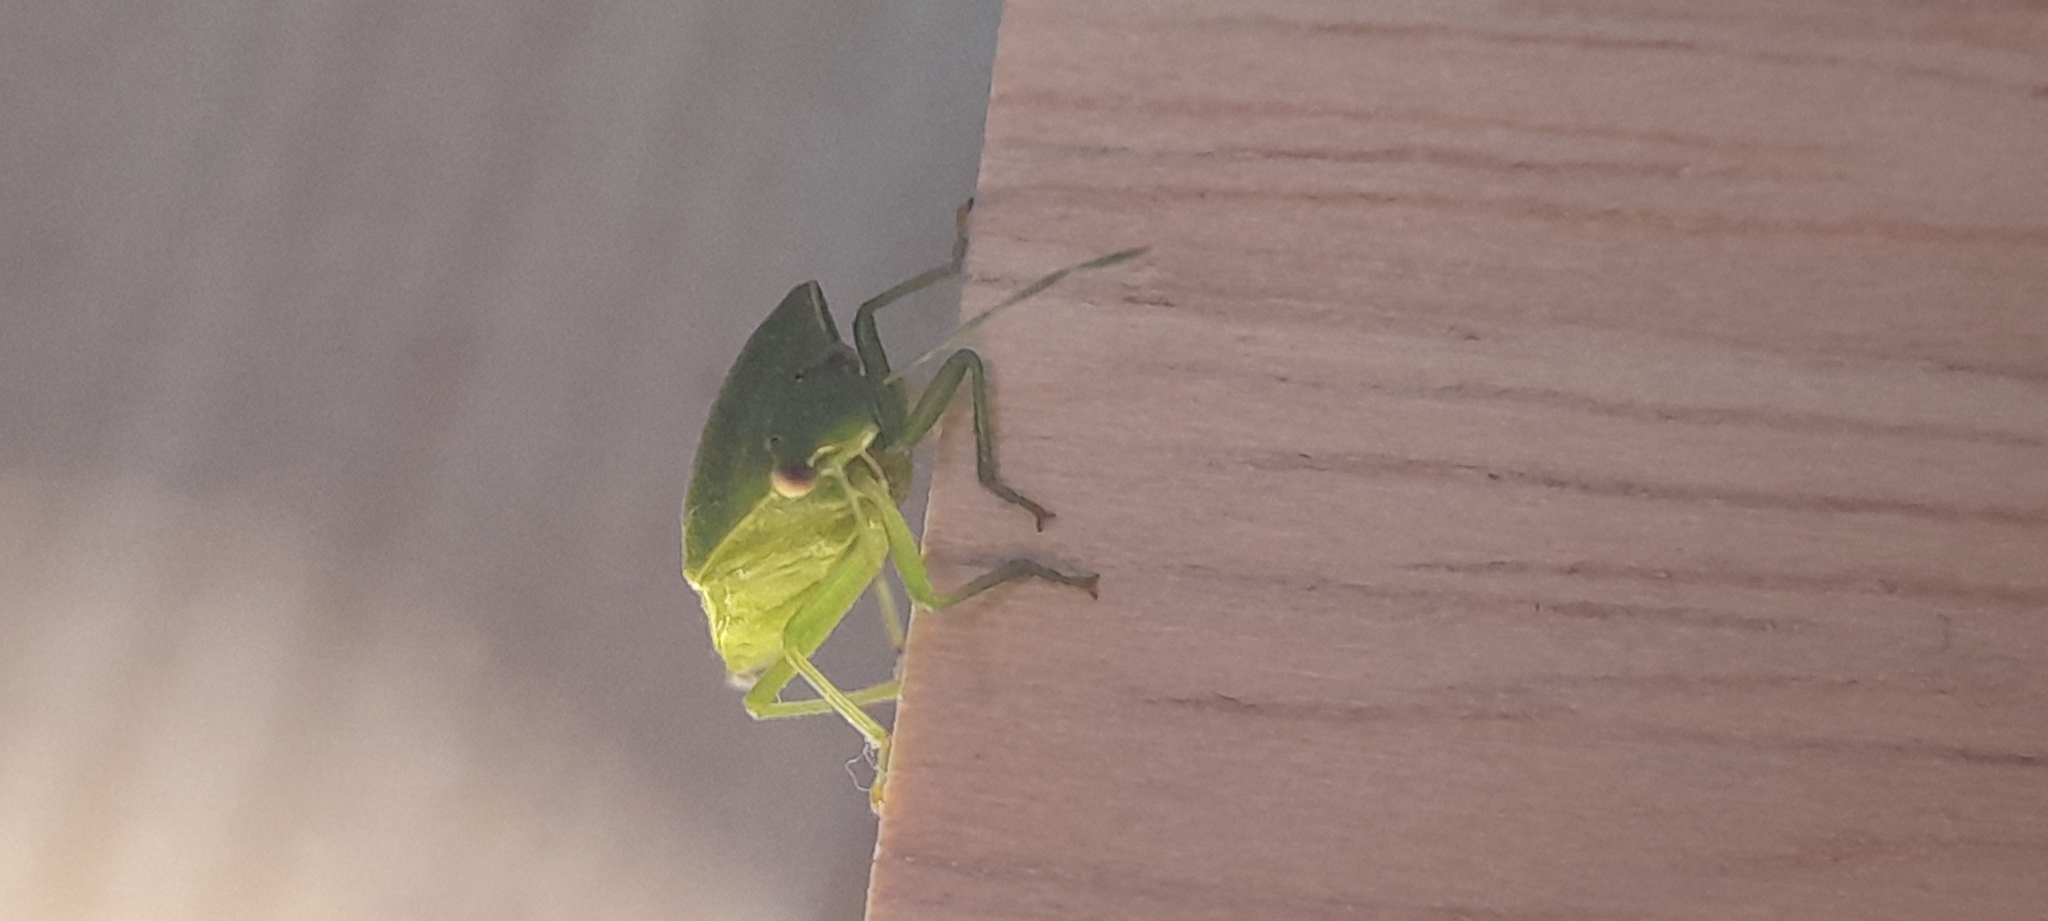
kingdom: Animalia
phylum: Arthropoda
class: Insecta
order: Hemiptera
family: Pentatomidae
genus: Acrosternum
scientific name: Acrosternum gramineum
